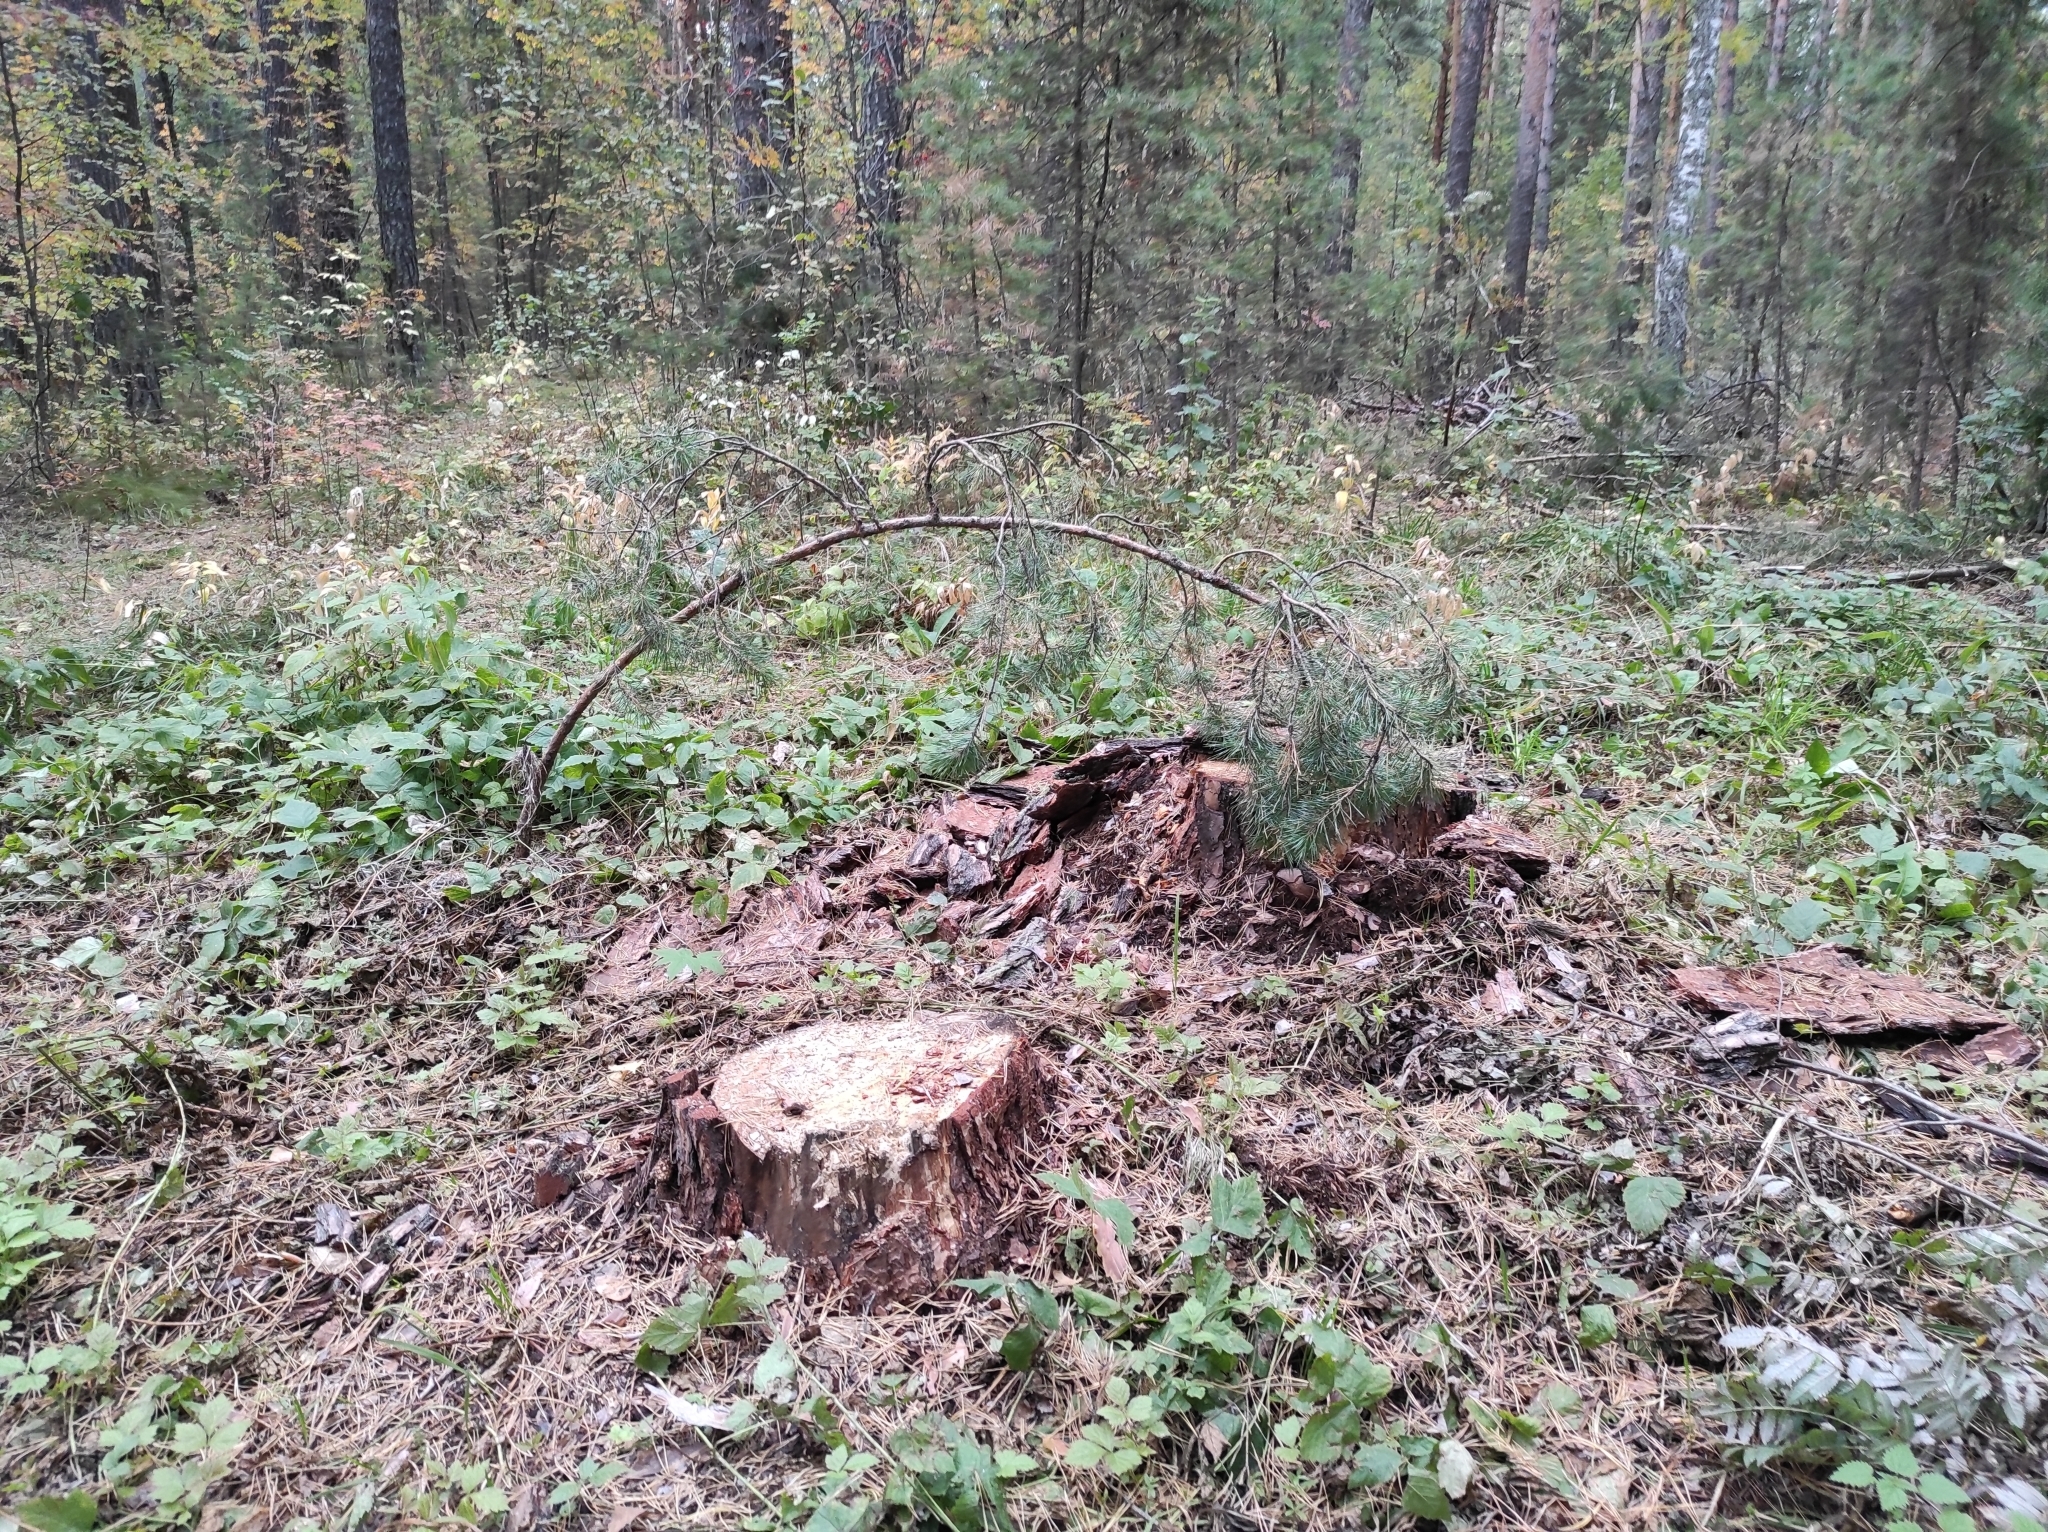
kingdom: Fungi
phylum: Basidiomycota
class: Agaricomycetes
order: Russulales
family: Russulaceae
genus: Russula
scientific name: Russula delica
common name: Milk white brittlegill
